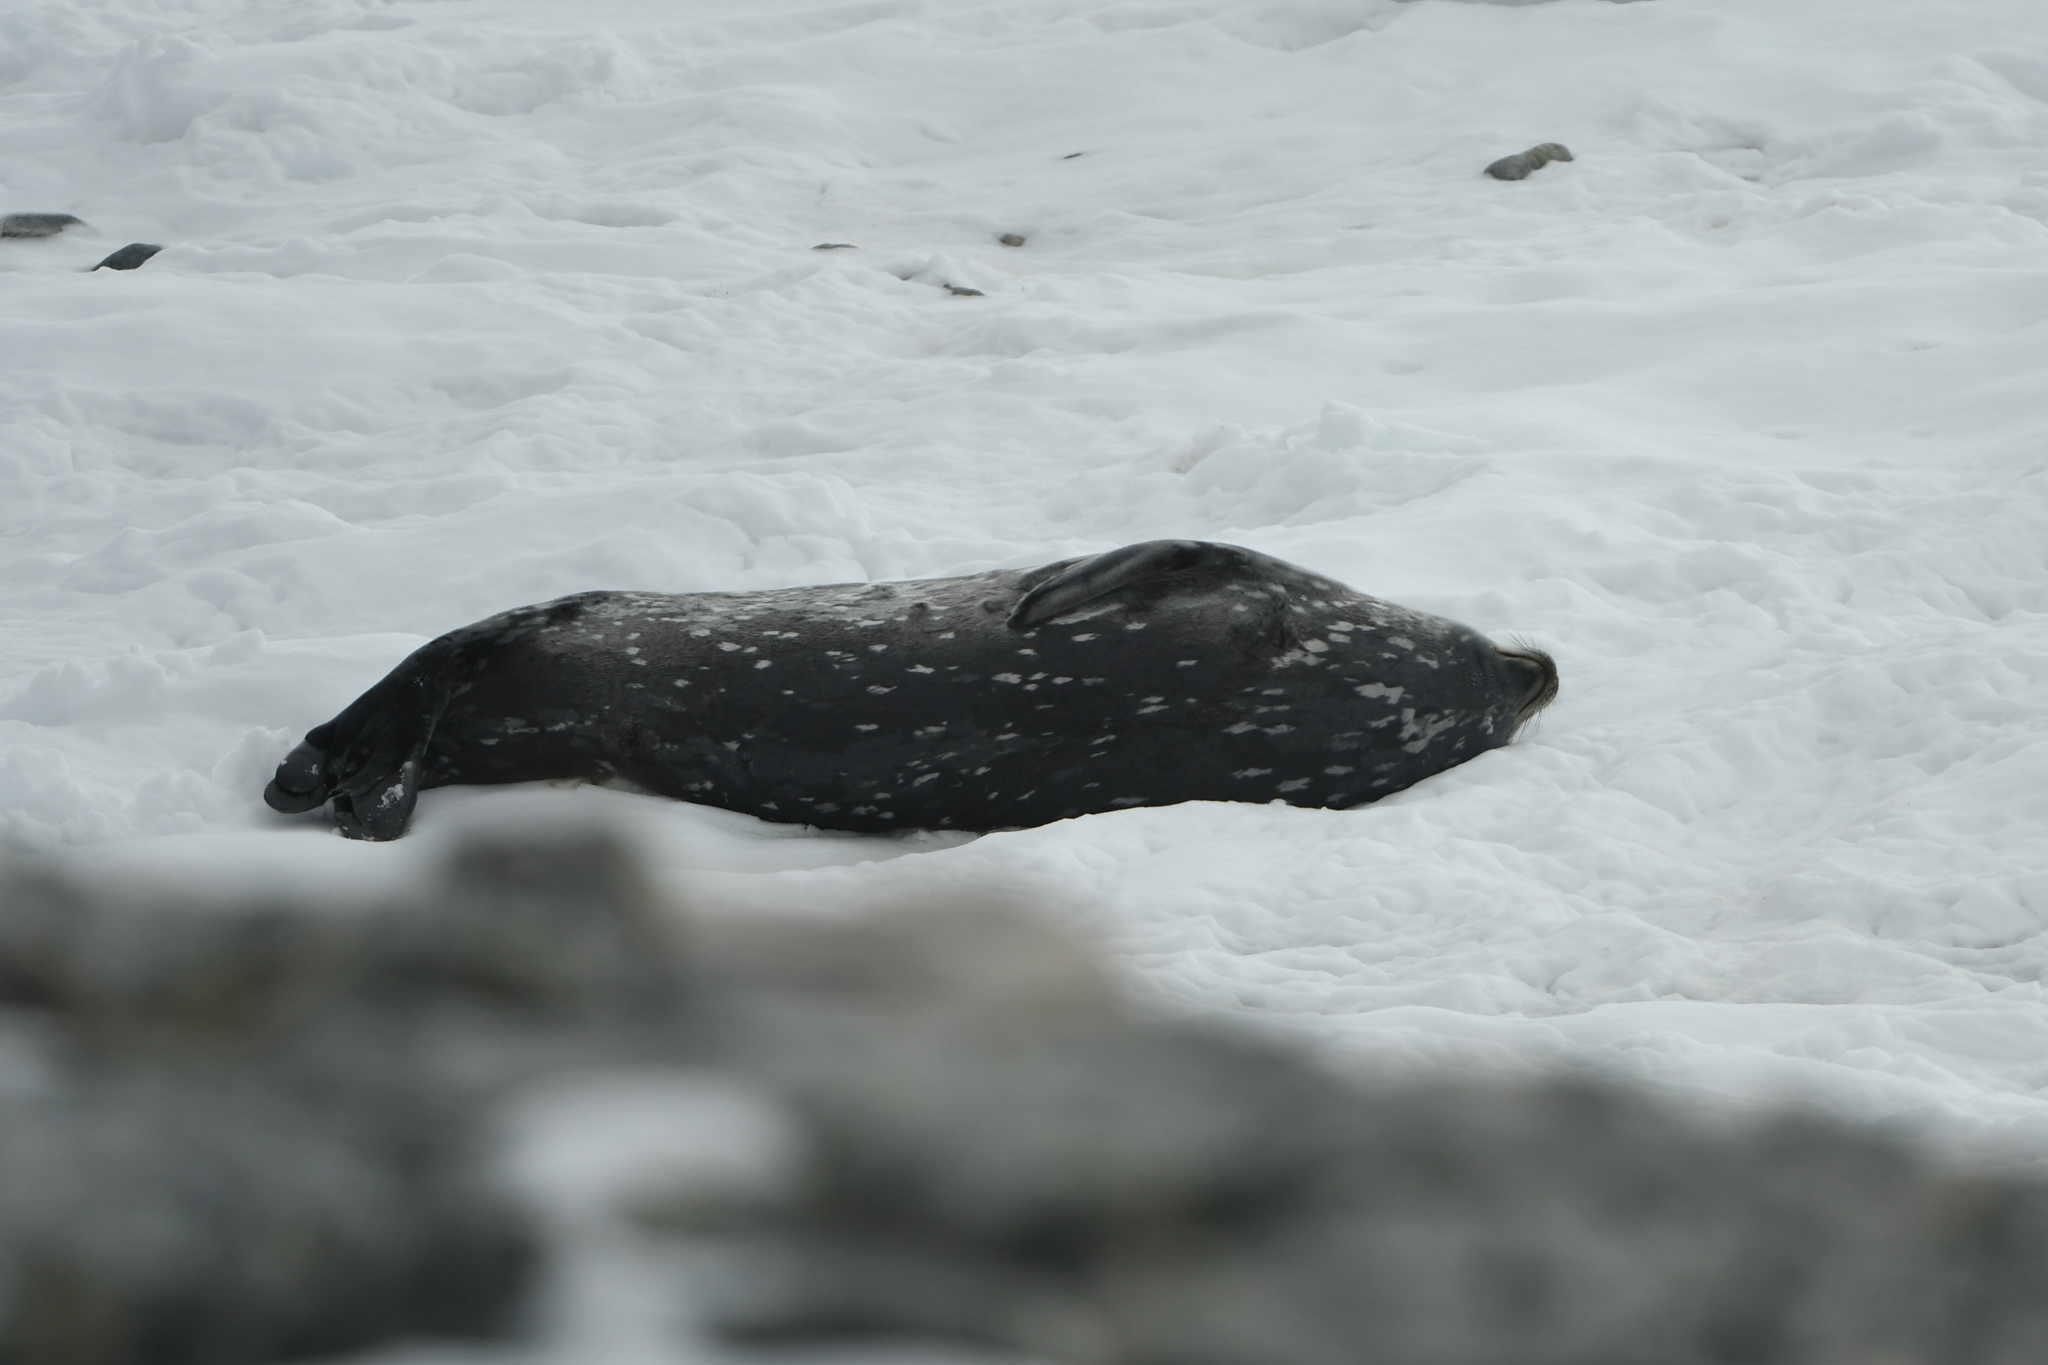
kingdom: Animalia
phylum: Chordata
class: Mammalia
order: Carnivora
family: Phocidae
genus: Leptonychotes
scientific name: Leptonychotes weddellii
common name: Weddell seal
